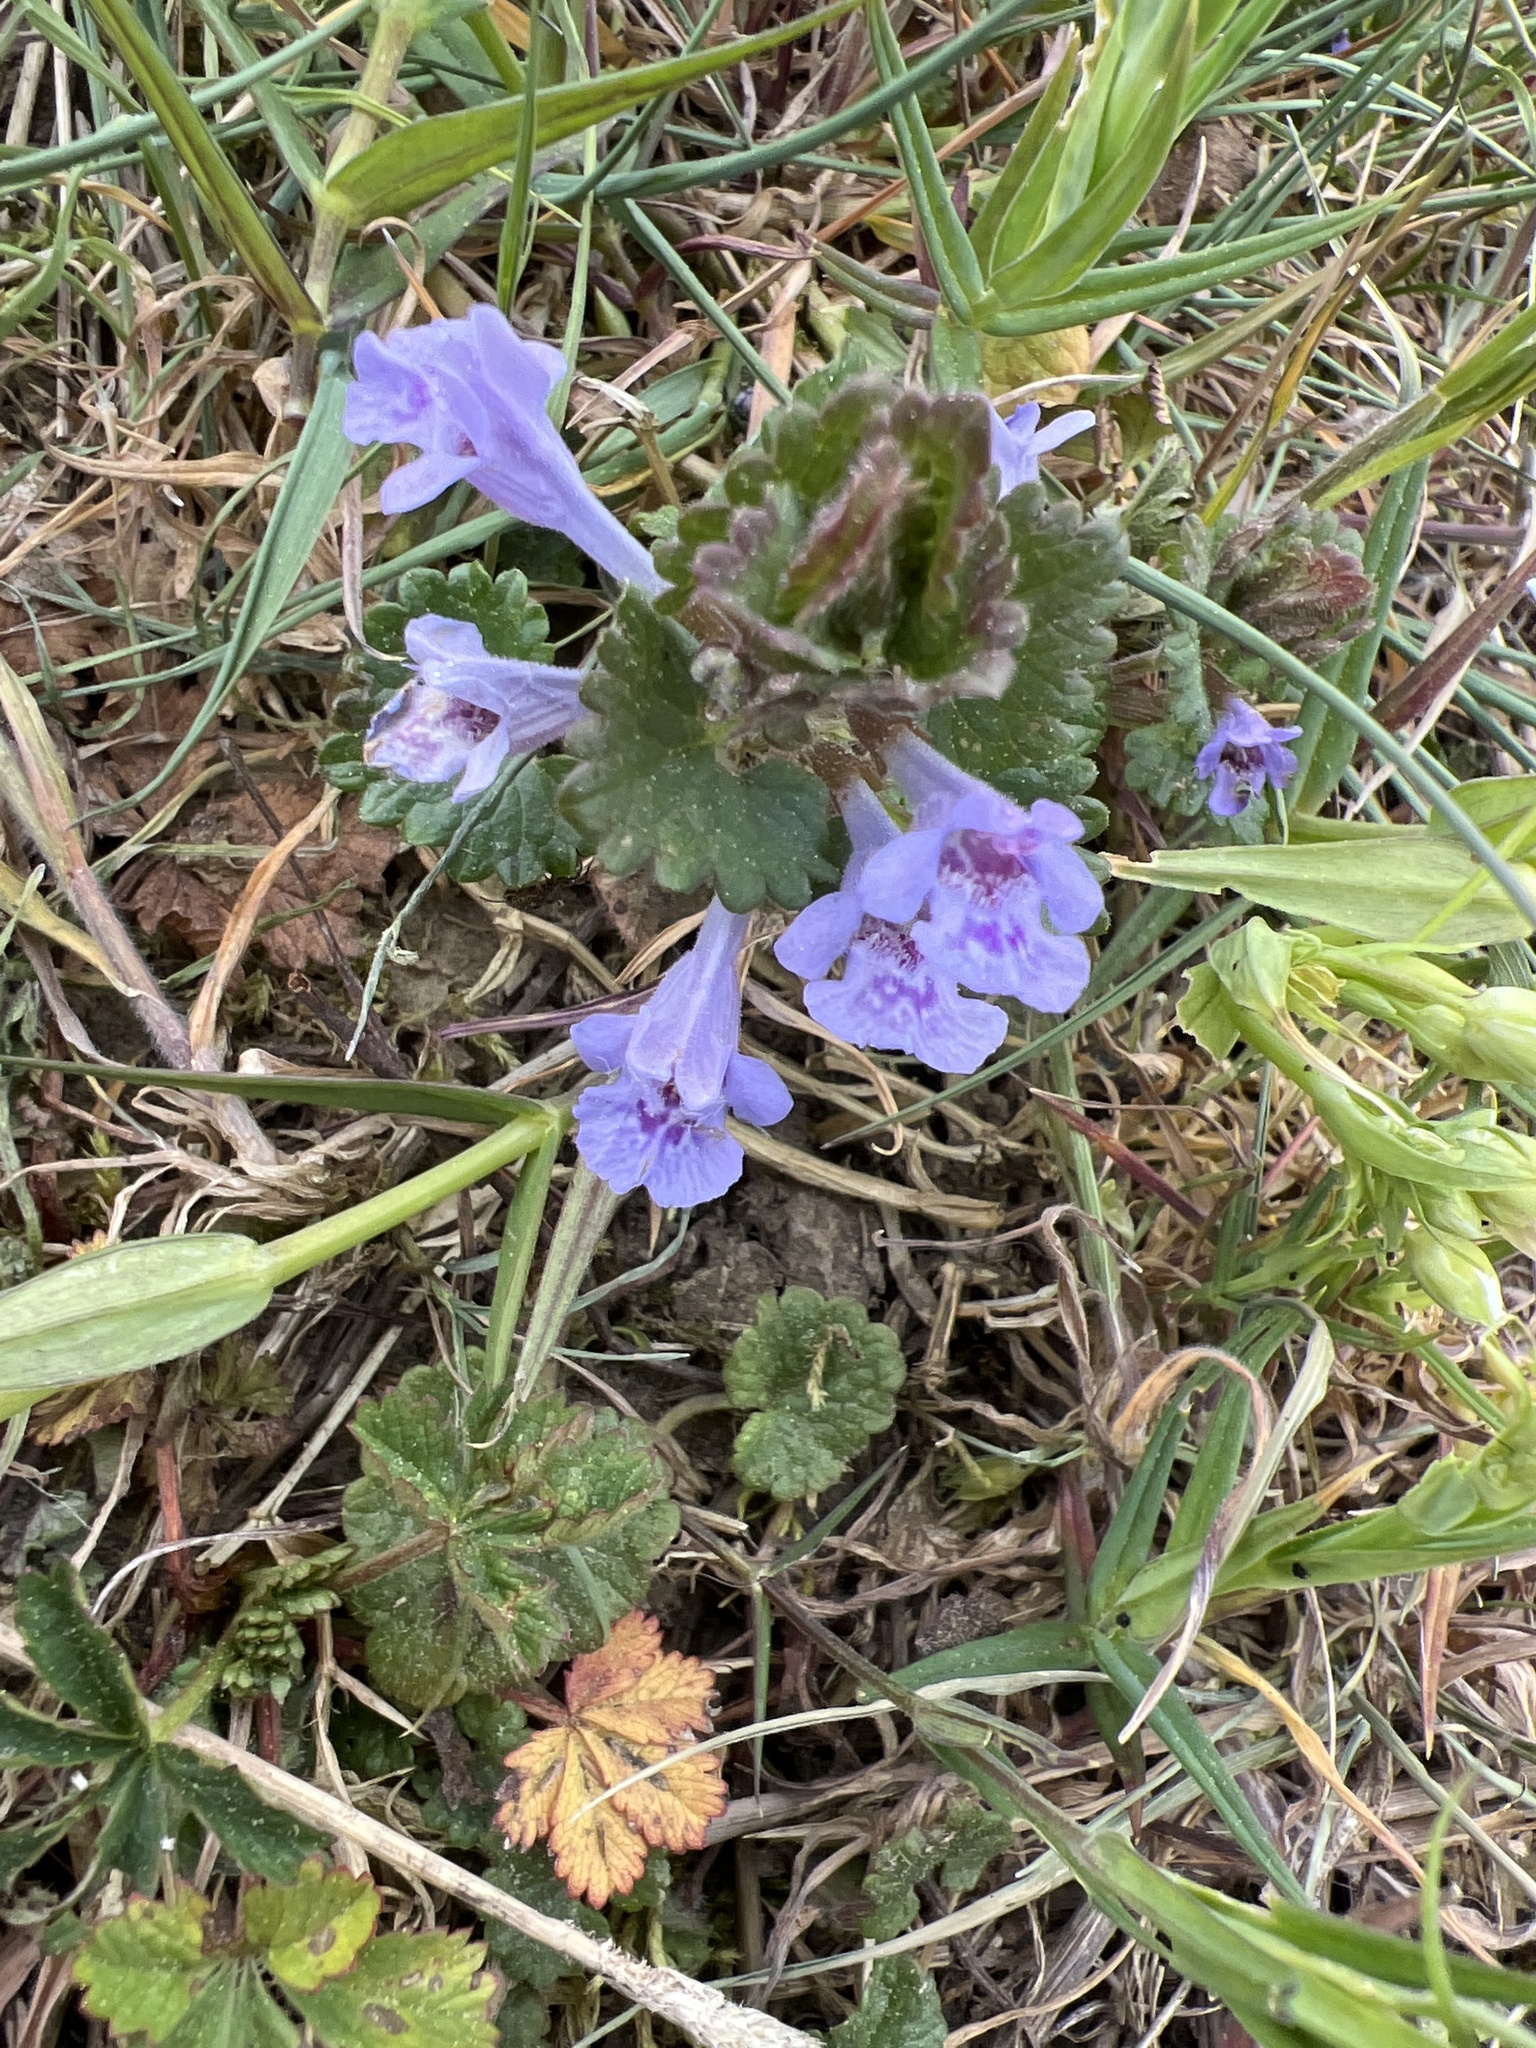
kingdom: Plantae
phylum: Tracheophyta
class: Magnoliopsida
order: Lamiales
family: Lamiaceae
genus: Glechoma
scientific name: Glechoma hederacea
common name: Ground ivy
